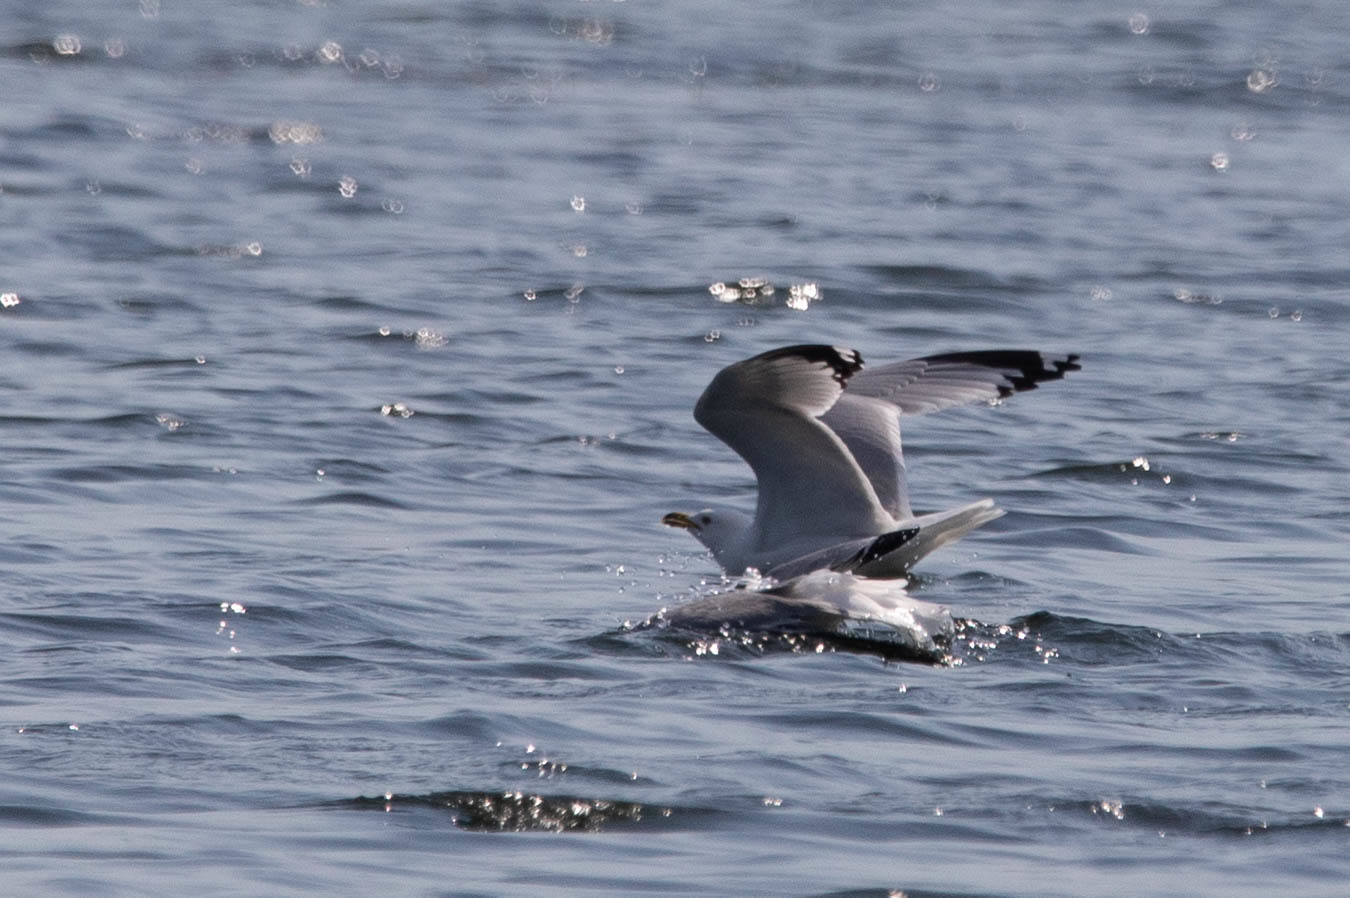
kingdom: Animalia
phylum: Chordata
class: Aves
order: Charadriiformes
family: Laridae
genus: Larus
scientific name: Larus delawarensis
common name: Ring-billed gull
